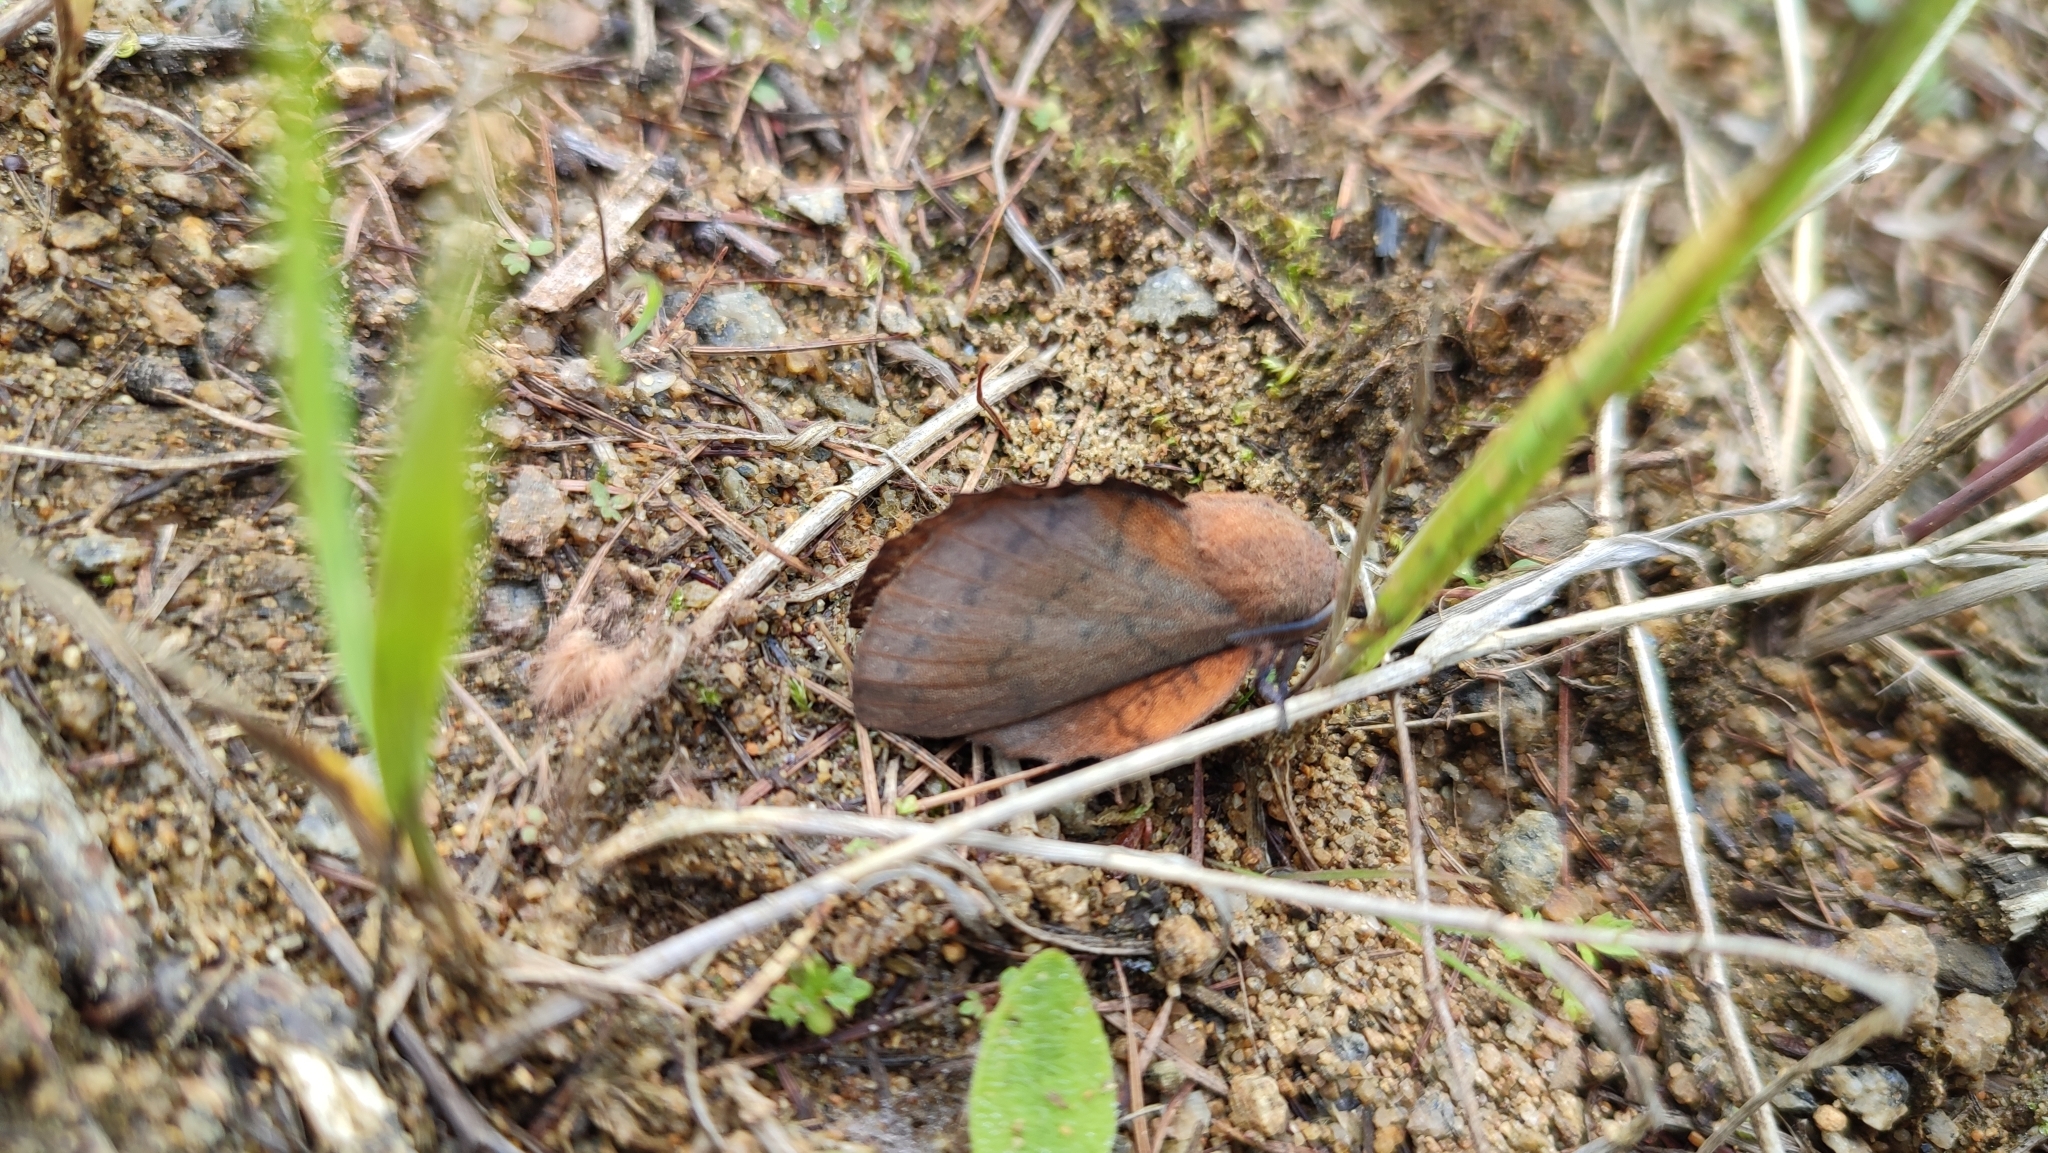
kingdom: Animalia
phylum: Arthropoda
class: Insecta
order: Lepidoptera
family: Lasiocampidae
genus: Gastropacha
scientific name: Gastropacha quercifolia
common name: Lappet
